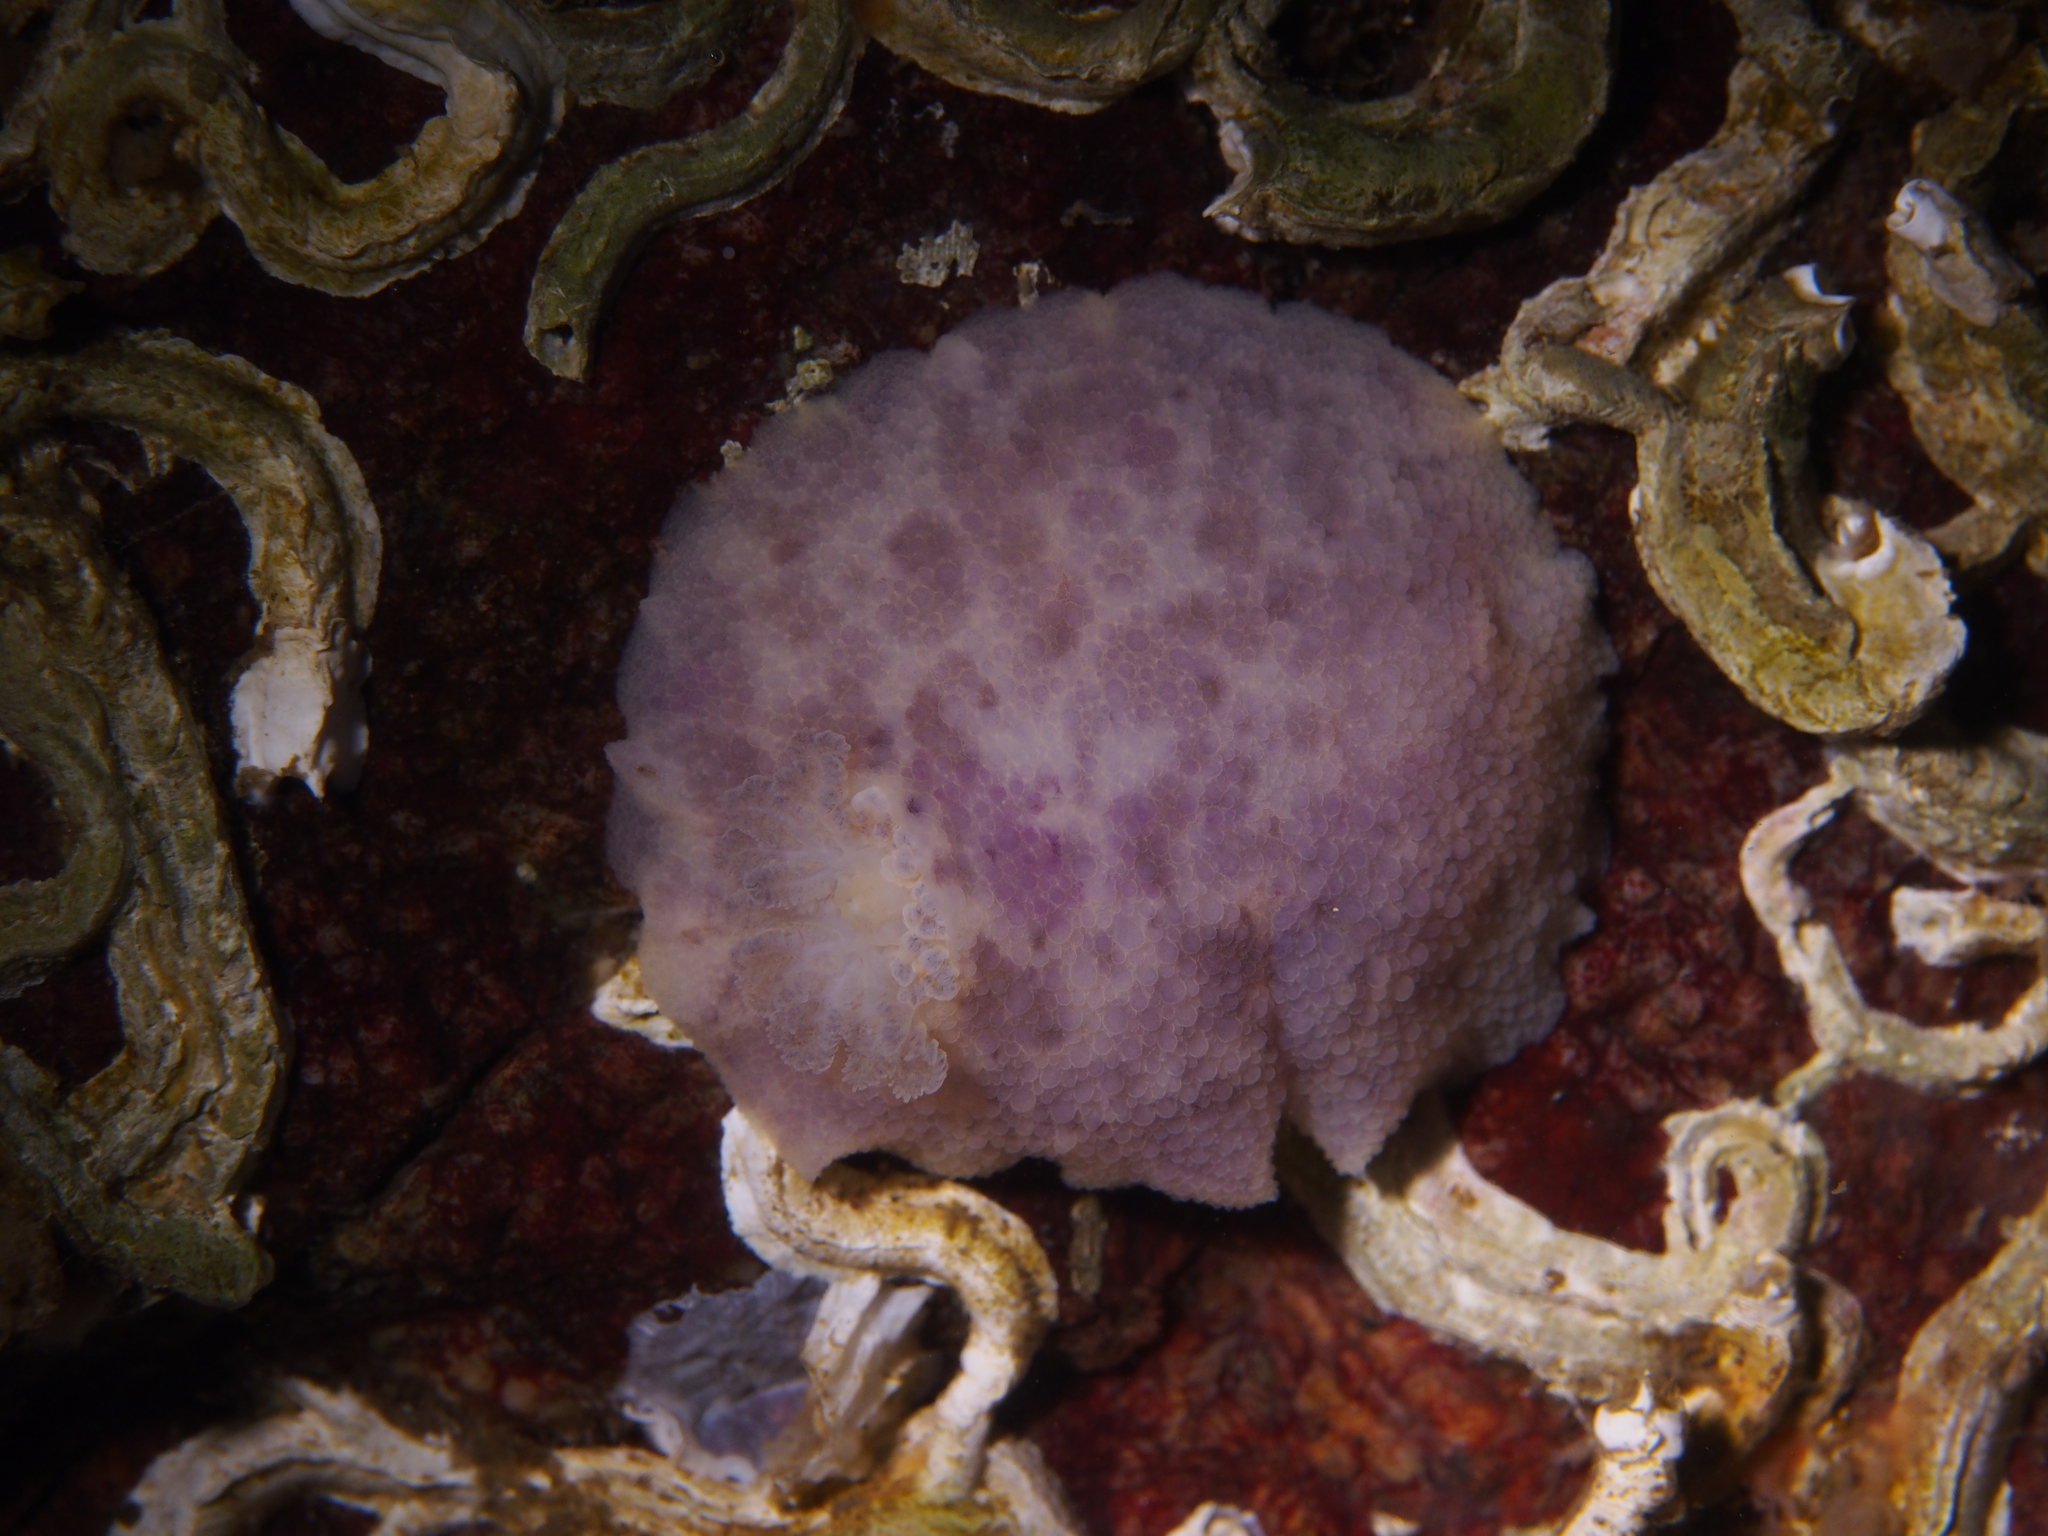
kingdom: Animalia
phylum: Mollusca
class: Gastropoda
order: Nudibranchia
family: Dorididae
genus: Doris
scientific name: Doris pseudoargus
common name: Sea lemon
